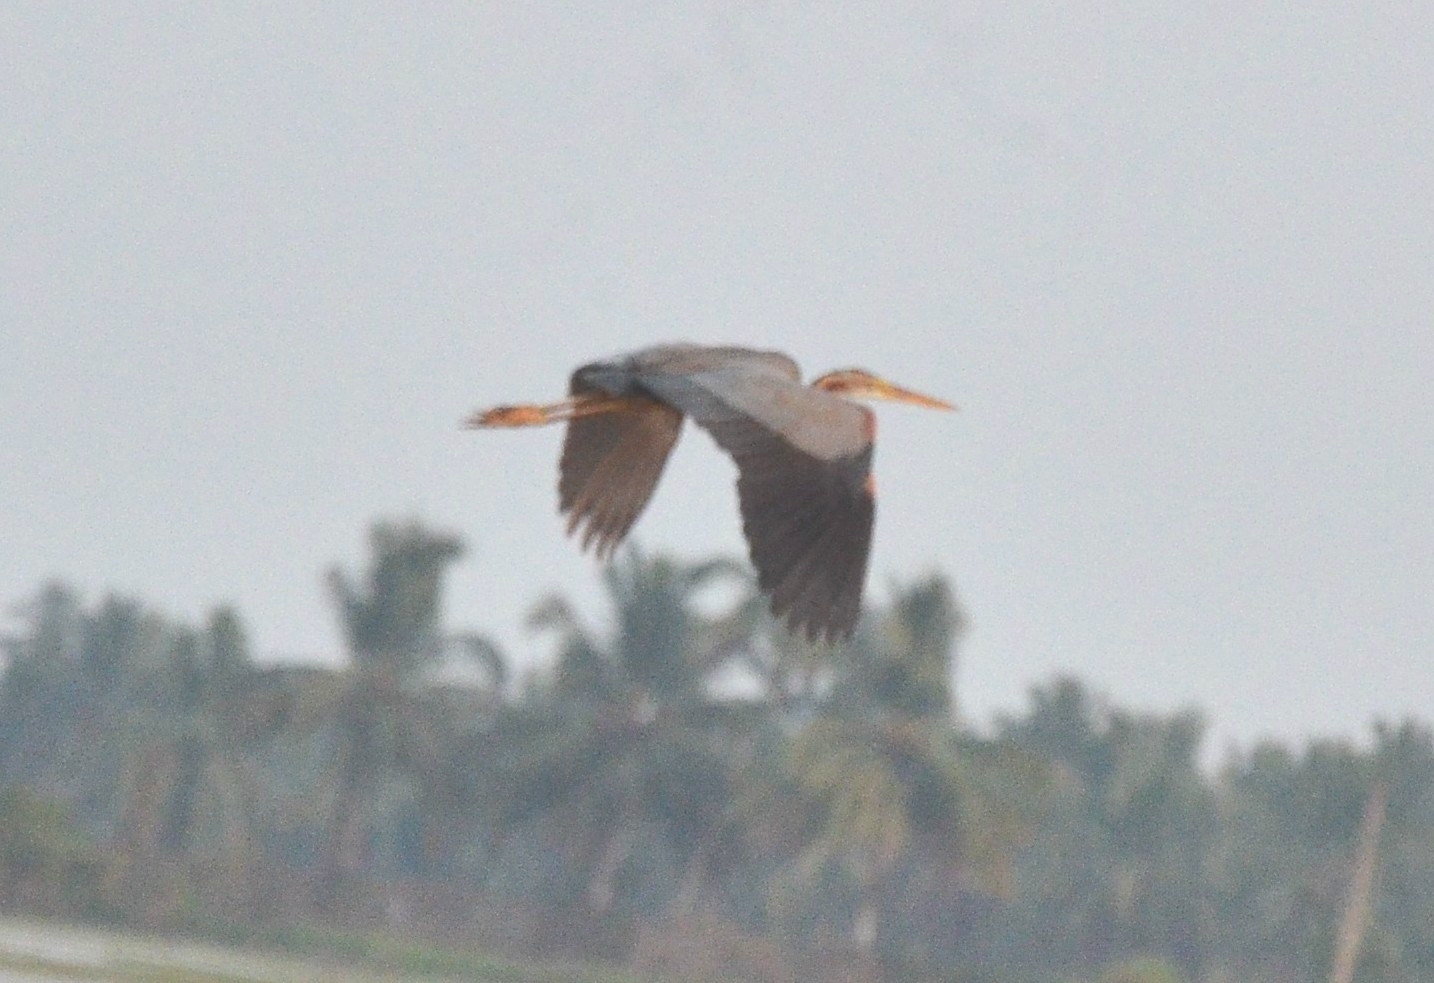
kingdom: Animalia
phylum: Chordata
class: Aves
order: Pelecaniformes
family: Ardeidae
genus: Ardea
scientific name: Ardea purpurea
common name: Purple heron
